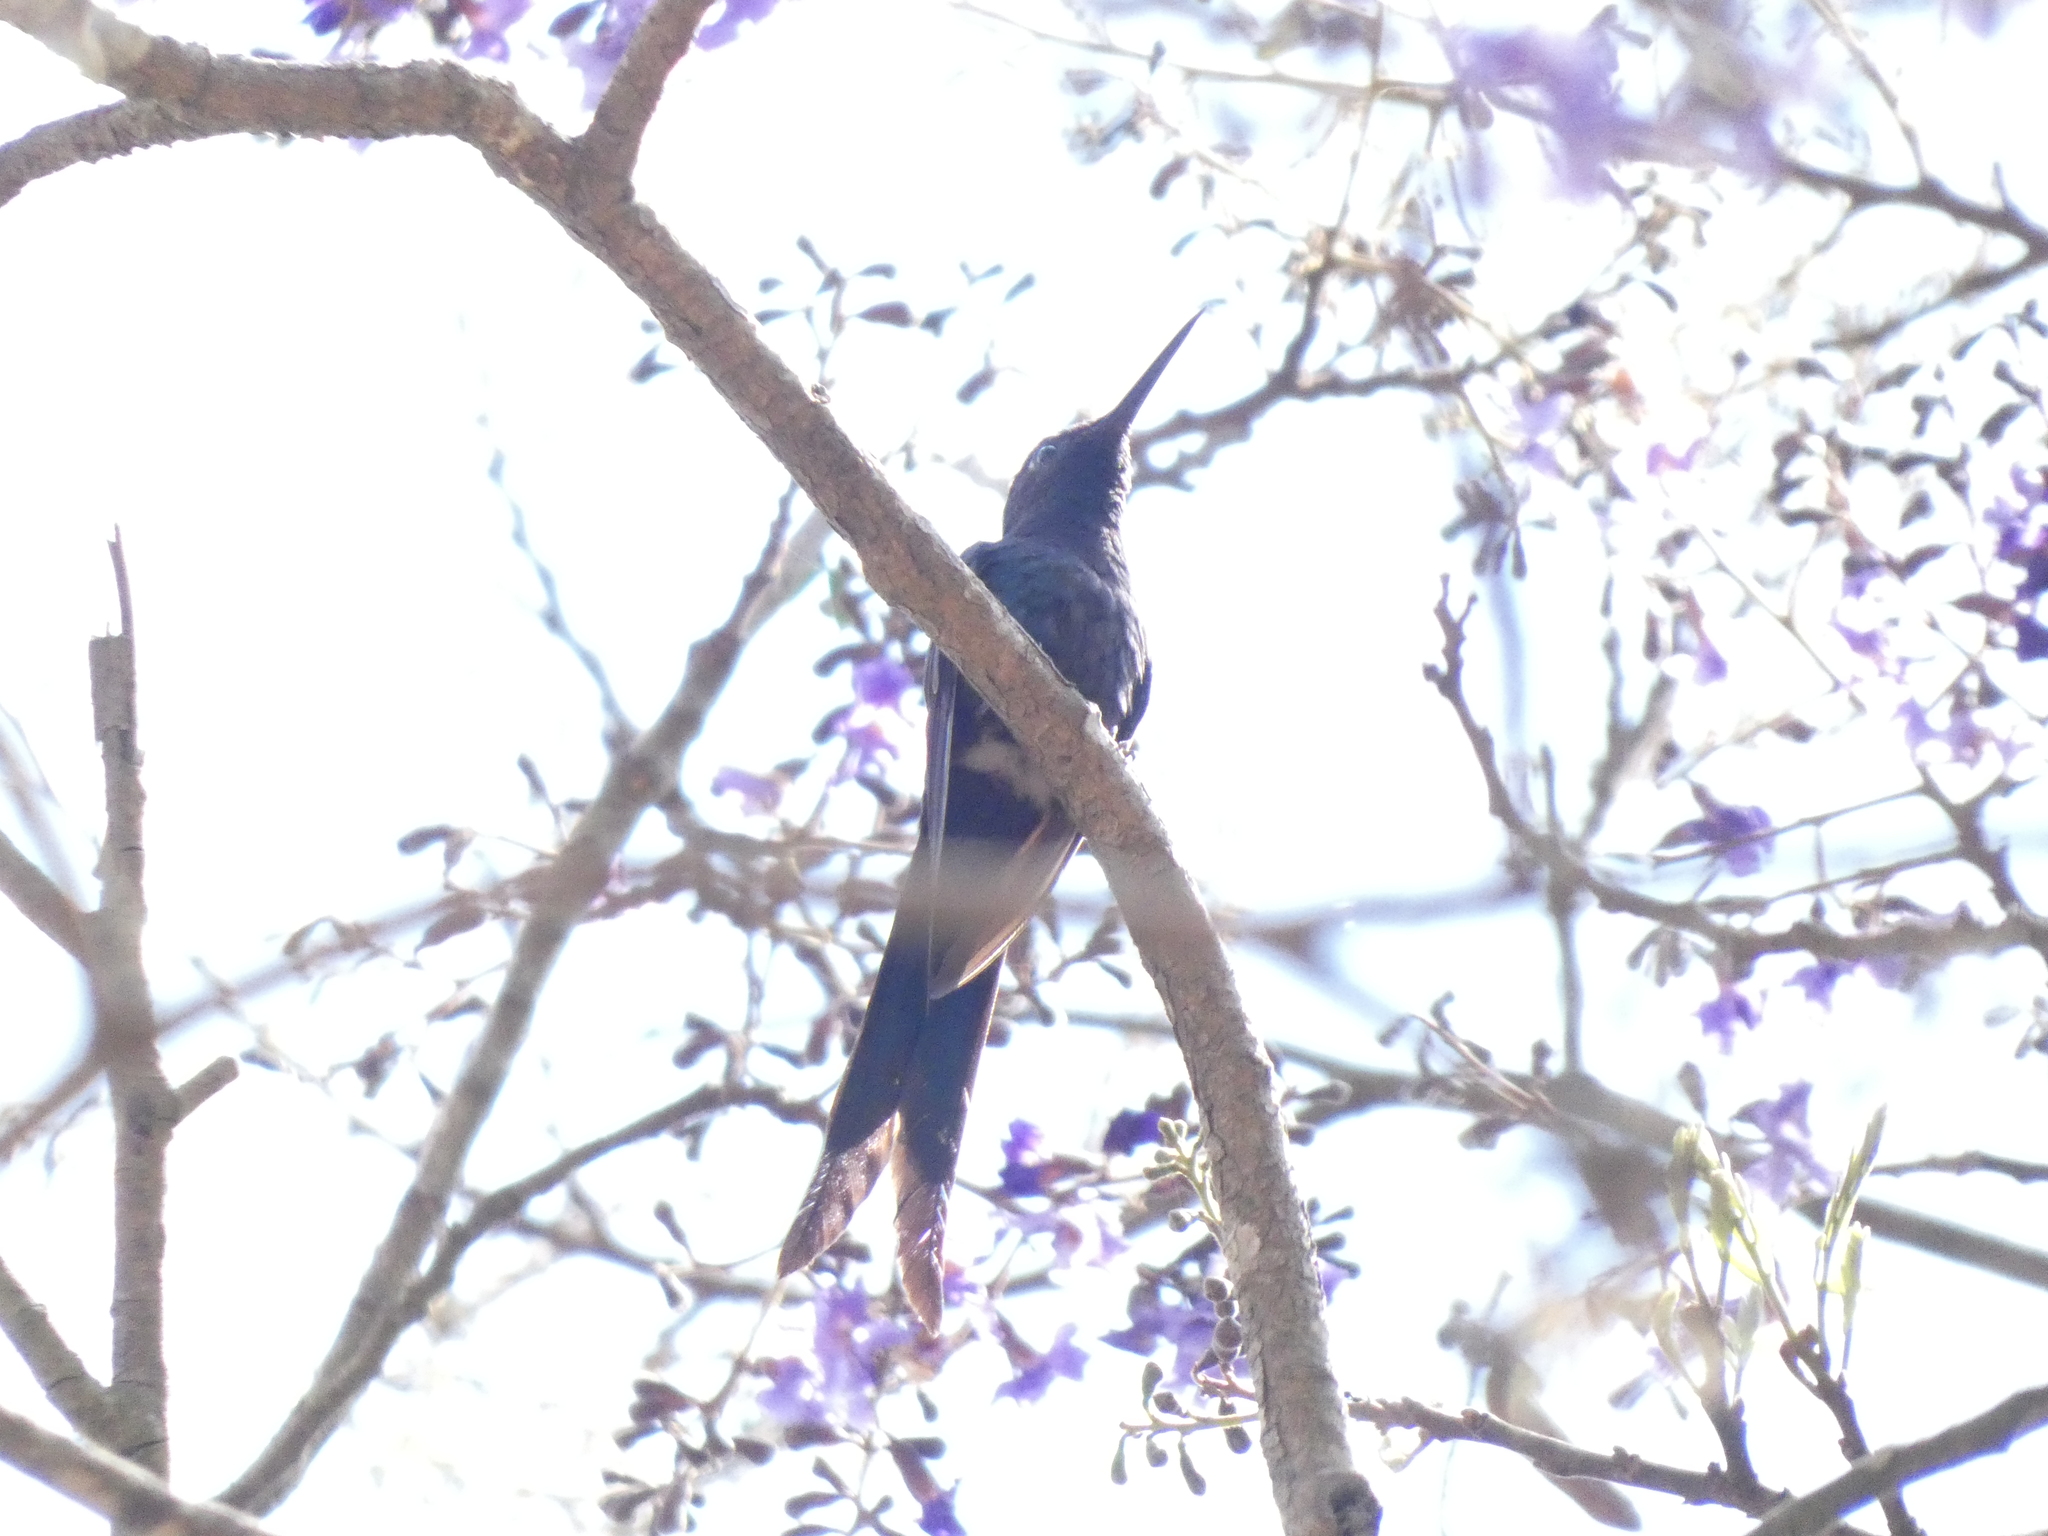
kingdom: Animalia
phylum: Chordata
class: Aves
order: Apodiformes
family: Trochilidae
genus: Eupetomena
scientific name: Eupetomena macroura
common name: Swallow-tailed hummingbird
